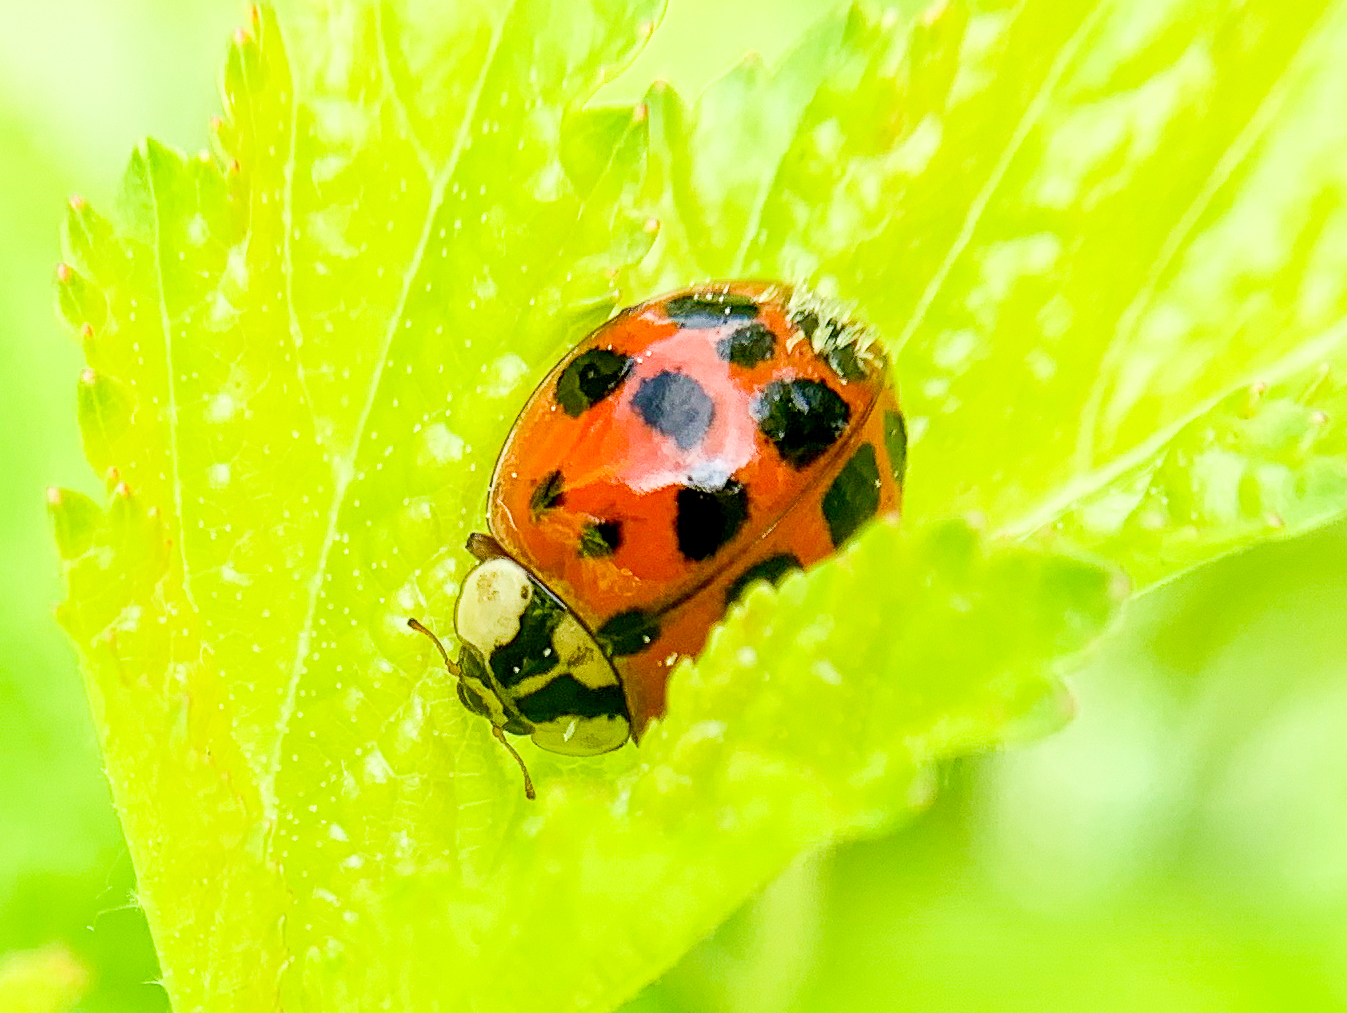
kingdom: Animalia
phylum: Arthropoda
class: Insecta
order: Coleoptera
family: Coccinellidae
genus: Harmonia
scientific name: Harmonia axyridis
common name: Harlequin ladybird
